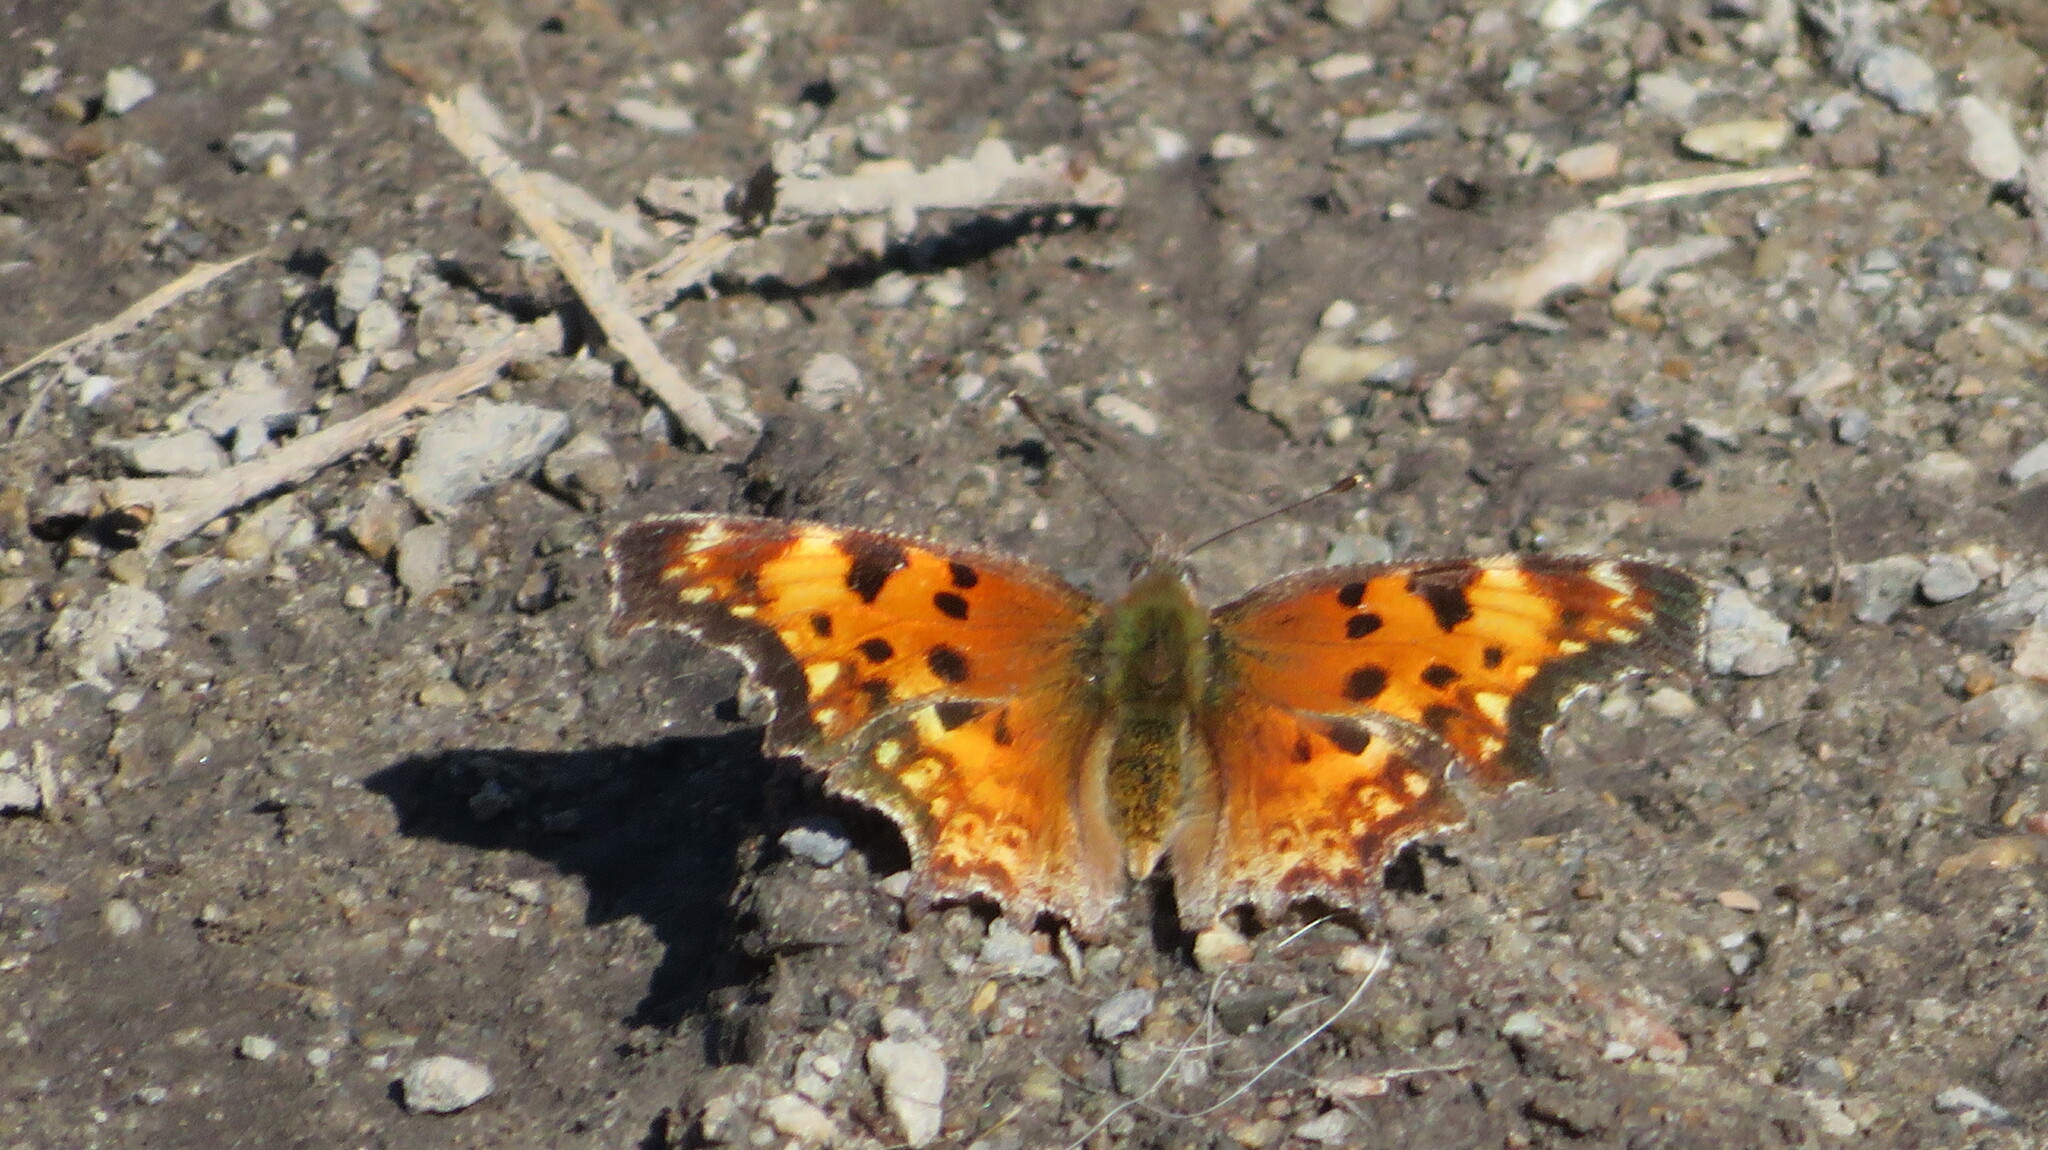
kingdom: Animalia
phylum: Arthropoda
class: Insecta
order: Lepidoptera
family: Nymphalidae
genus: Polygonia
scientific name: Polygonia gracilis
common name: Hoary comma
